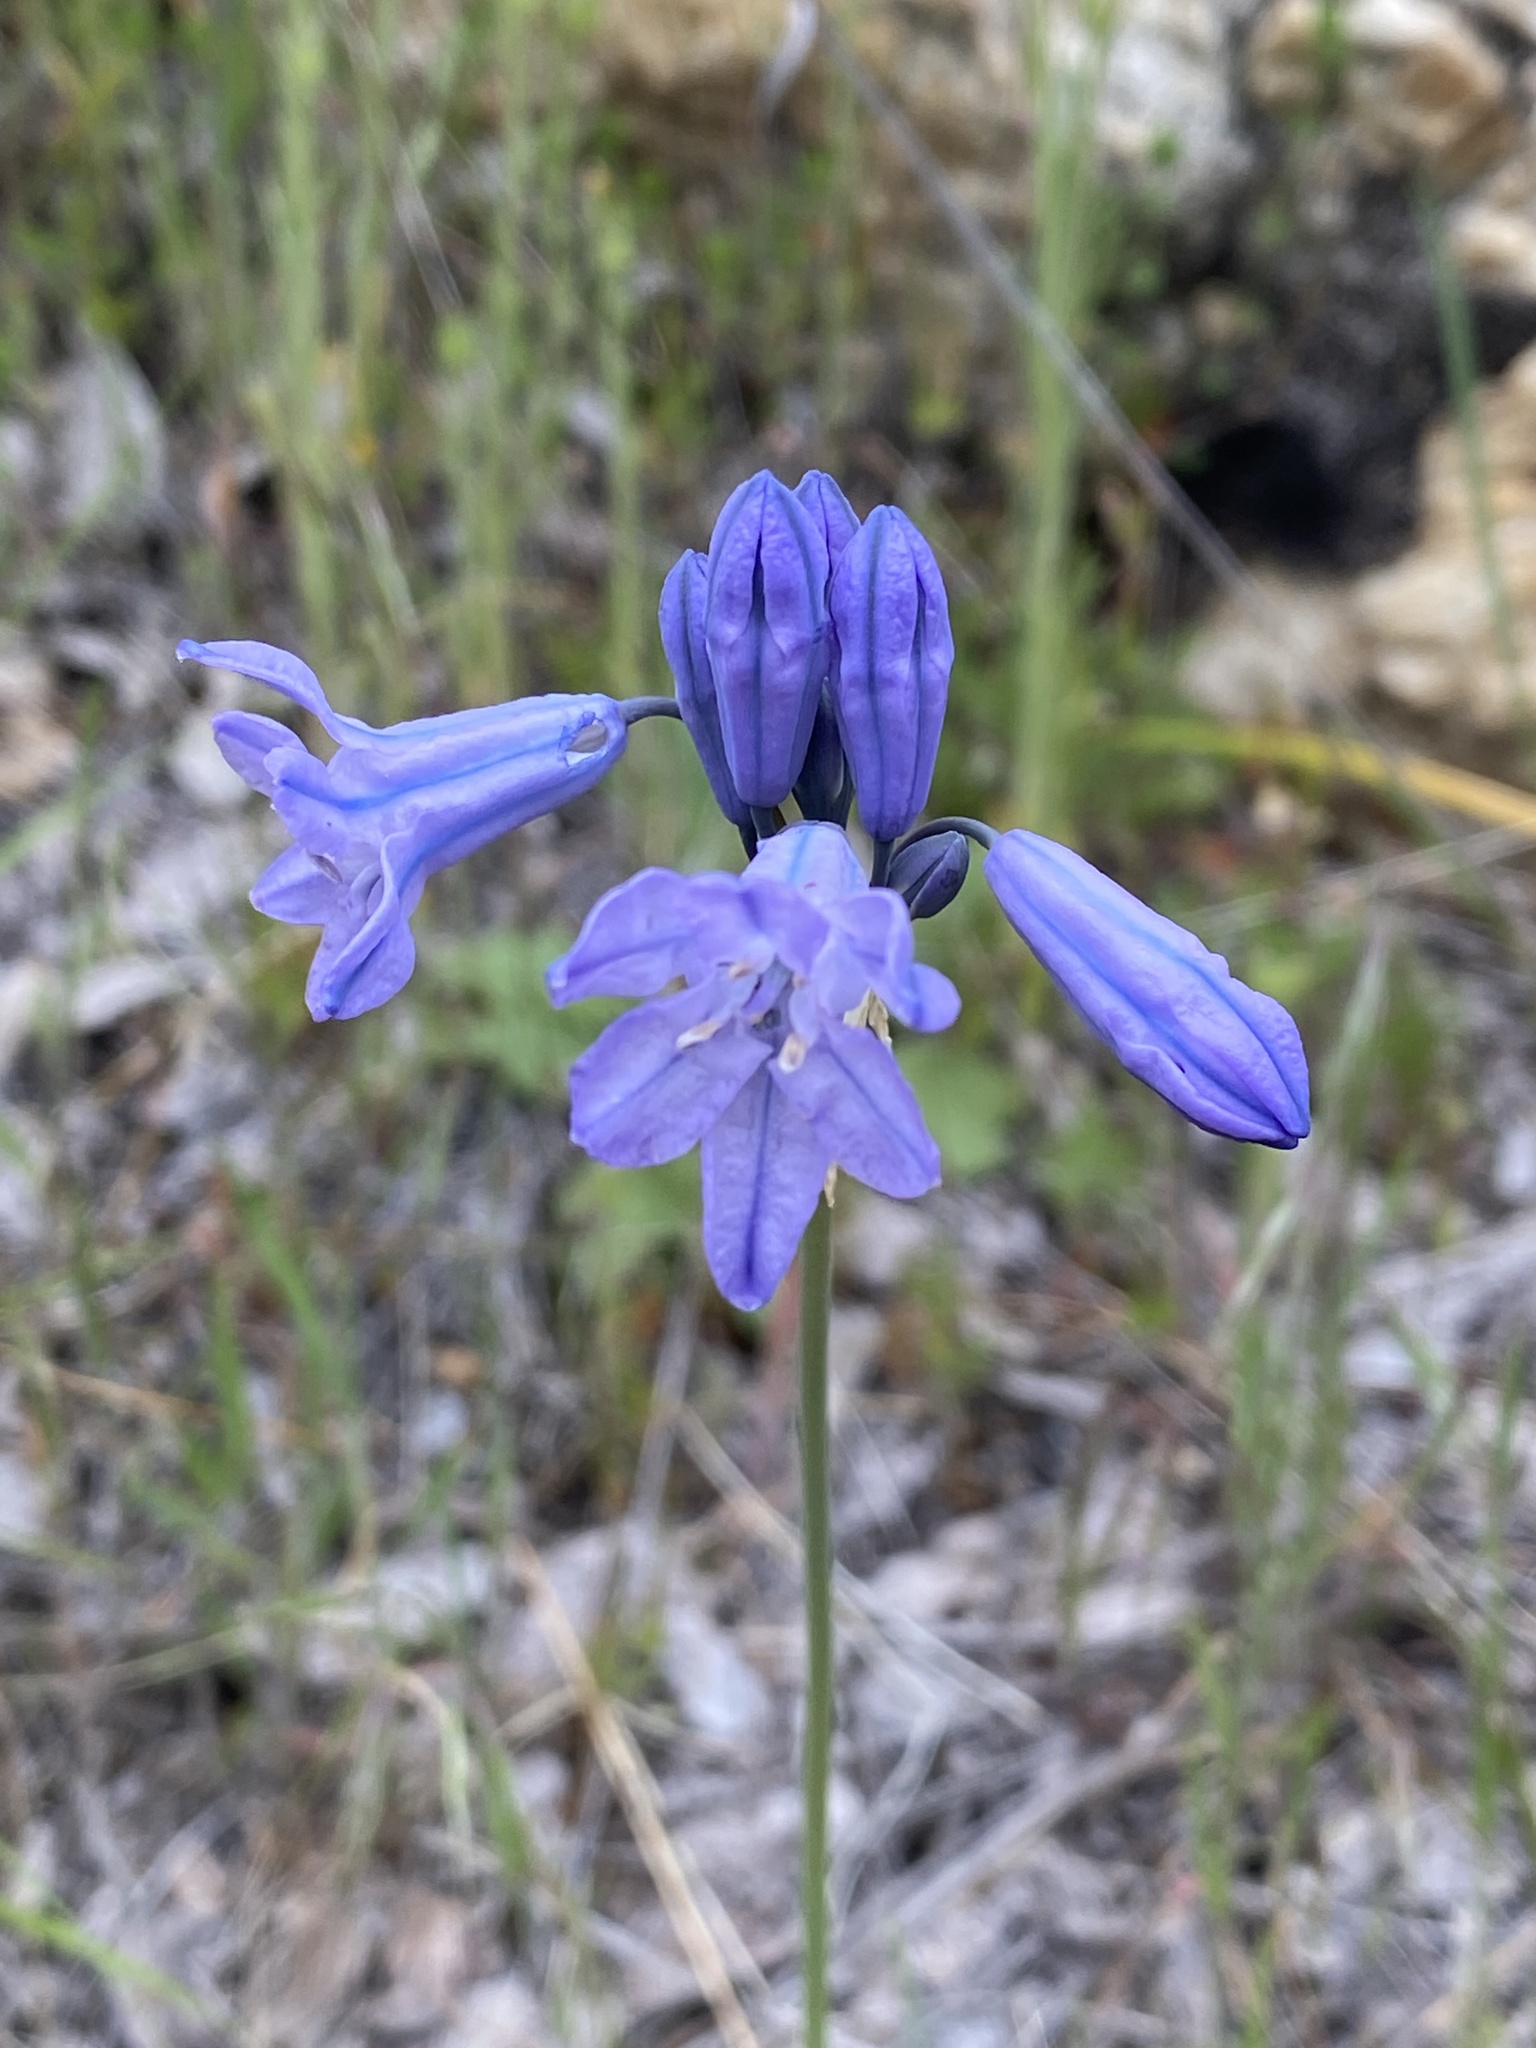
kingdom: Plantae
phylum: Tracheophyta
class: Liliopsida
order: Asparagales
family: Asparagaceae
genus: Triteleia
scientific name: Triteleia grandiflora
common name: Wild hyacinth
